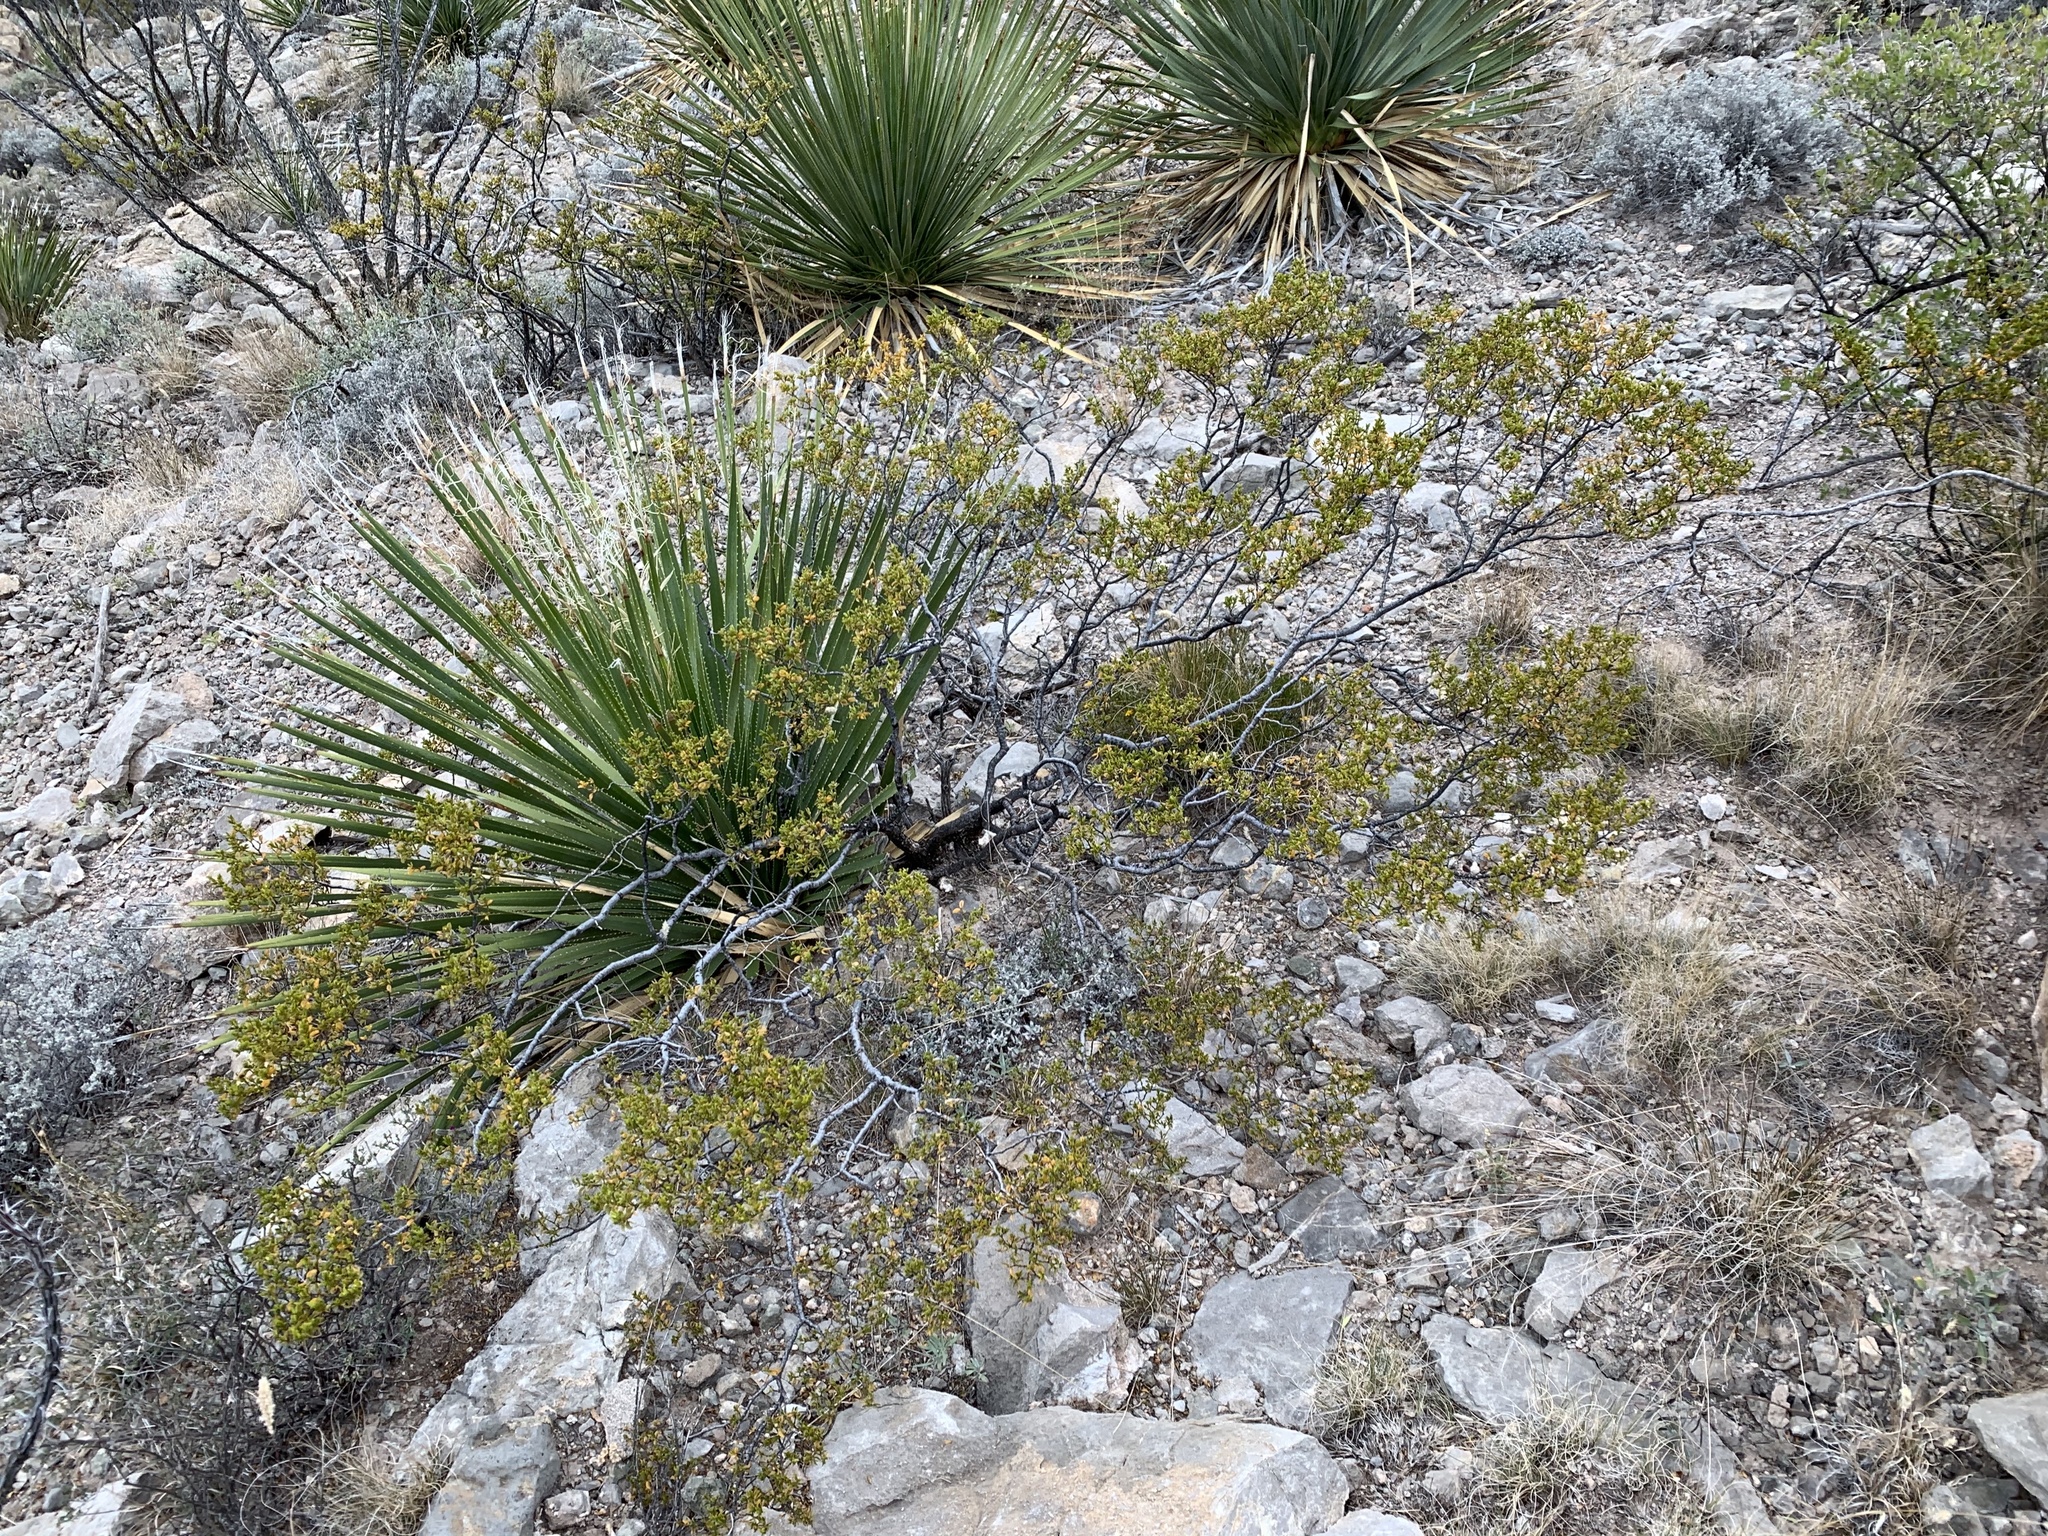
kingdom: Plantae
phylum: Tracheophyta
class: Magnoliopsida
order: Zygophyllales
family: Zygophyllaceae
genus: Larrea
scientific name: Larrea tridentata
